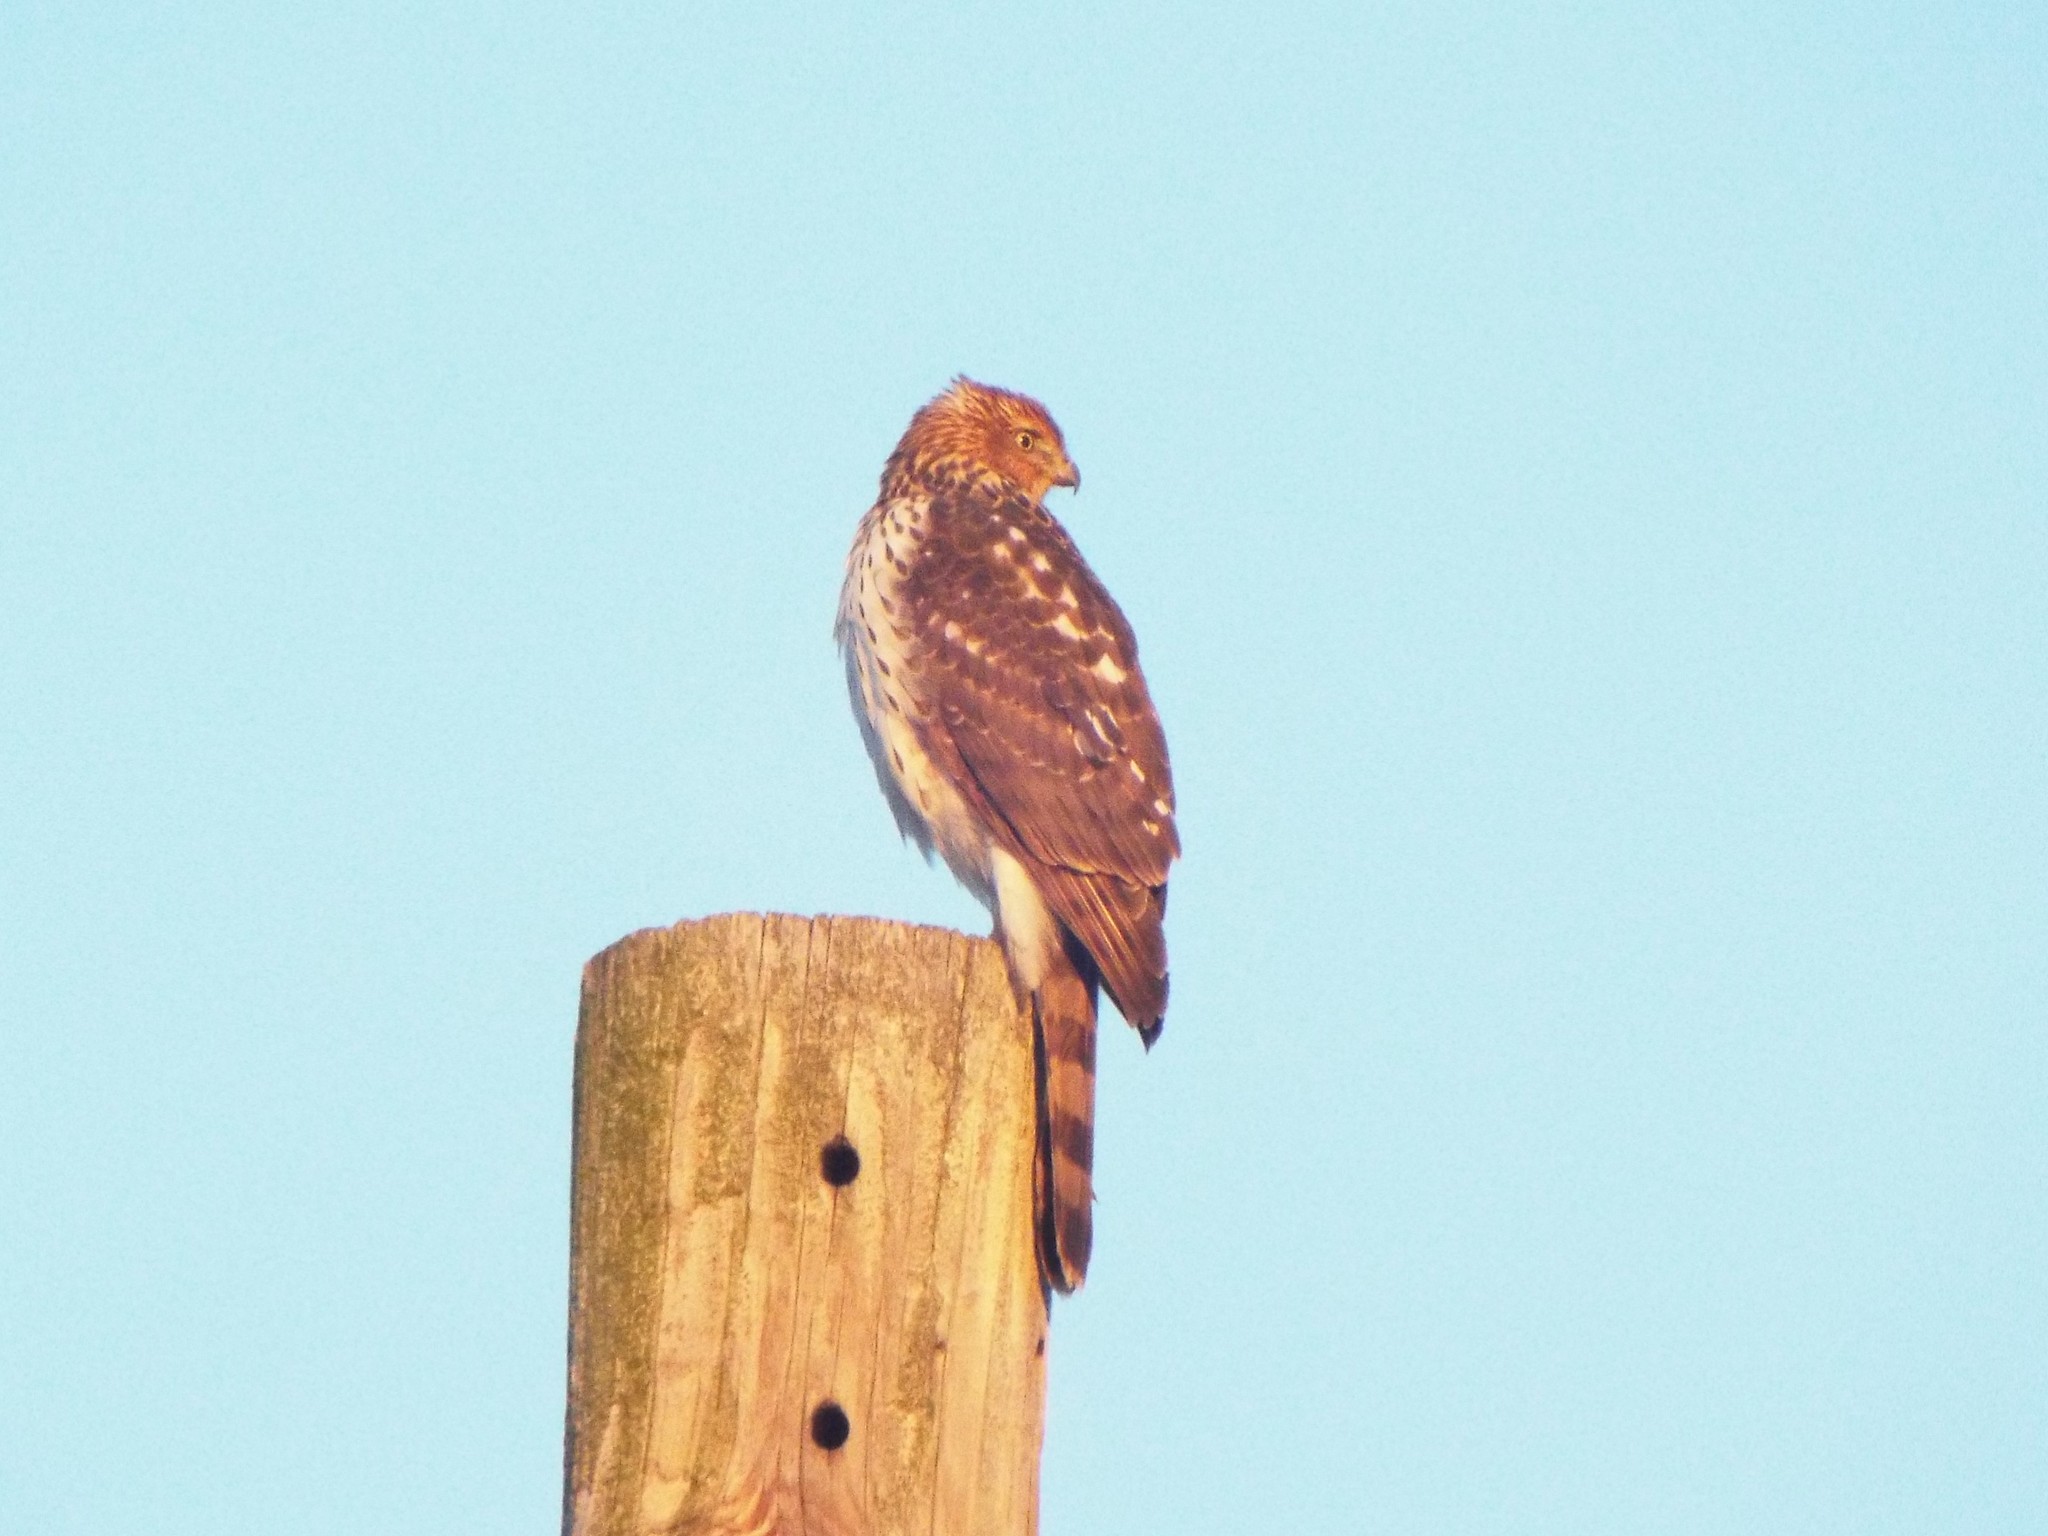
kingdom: Animalia
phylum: Chordata
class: Aves
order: Accipitriformes
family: Accipitridae
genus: Accipiter
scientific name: Accipiter cooperii
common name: Cooper's hawk
